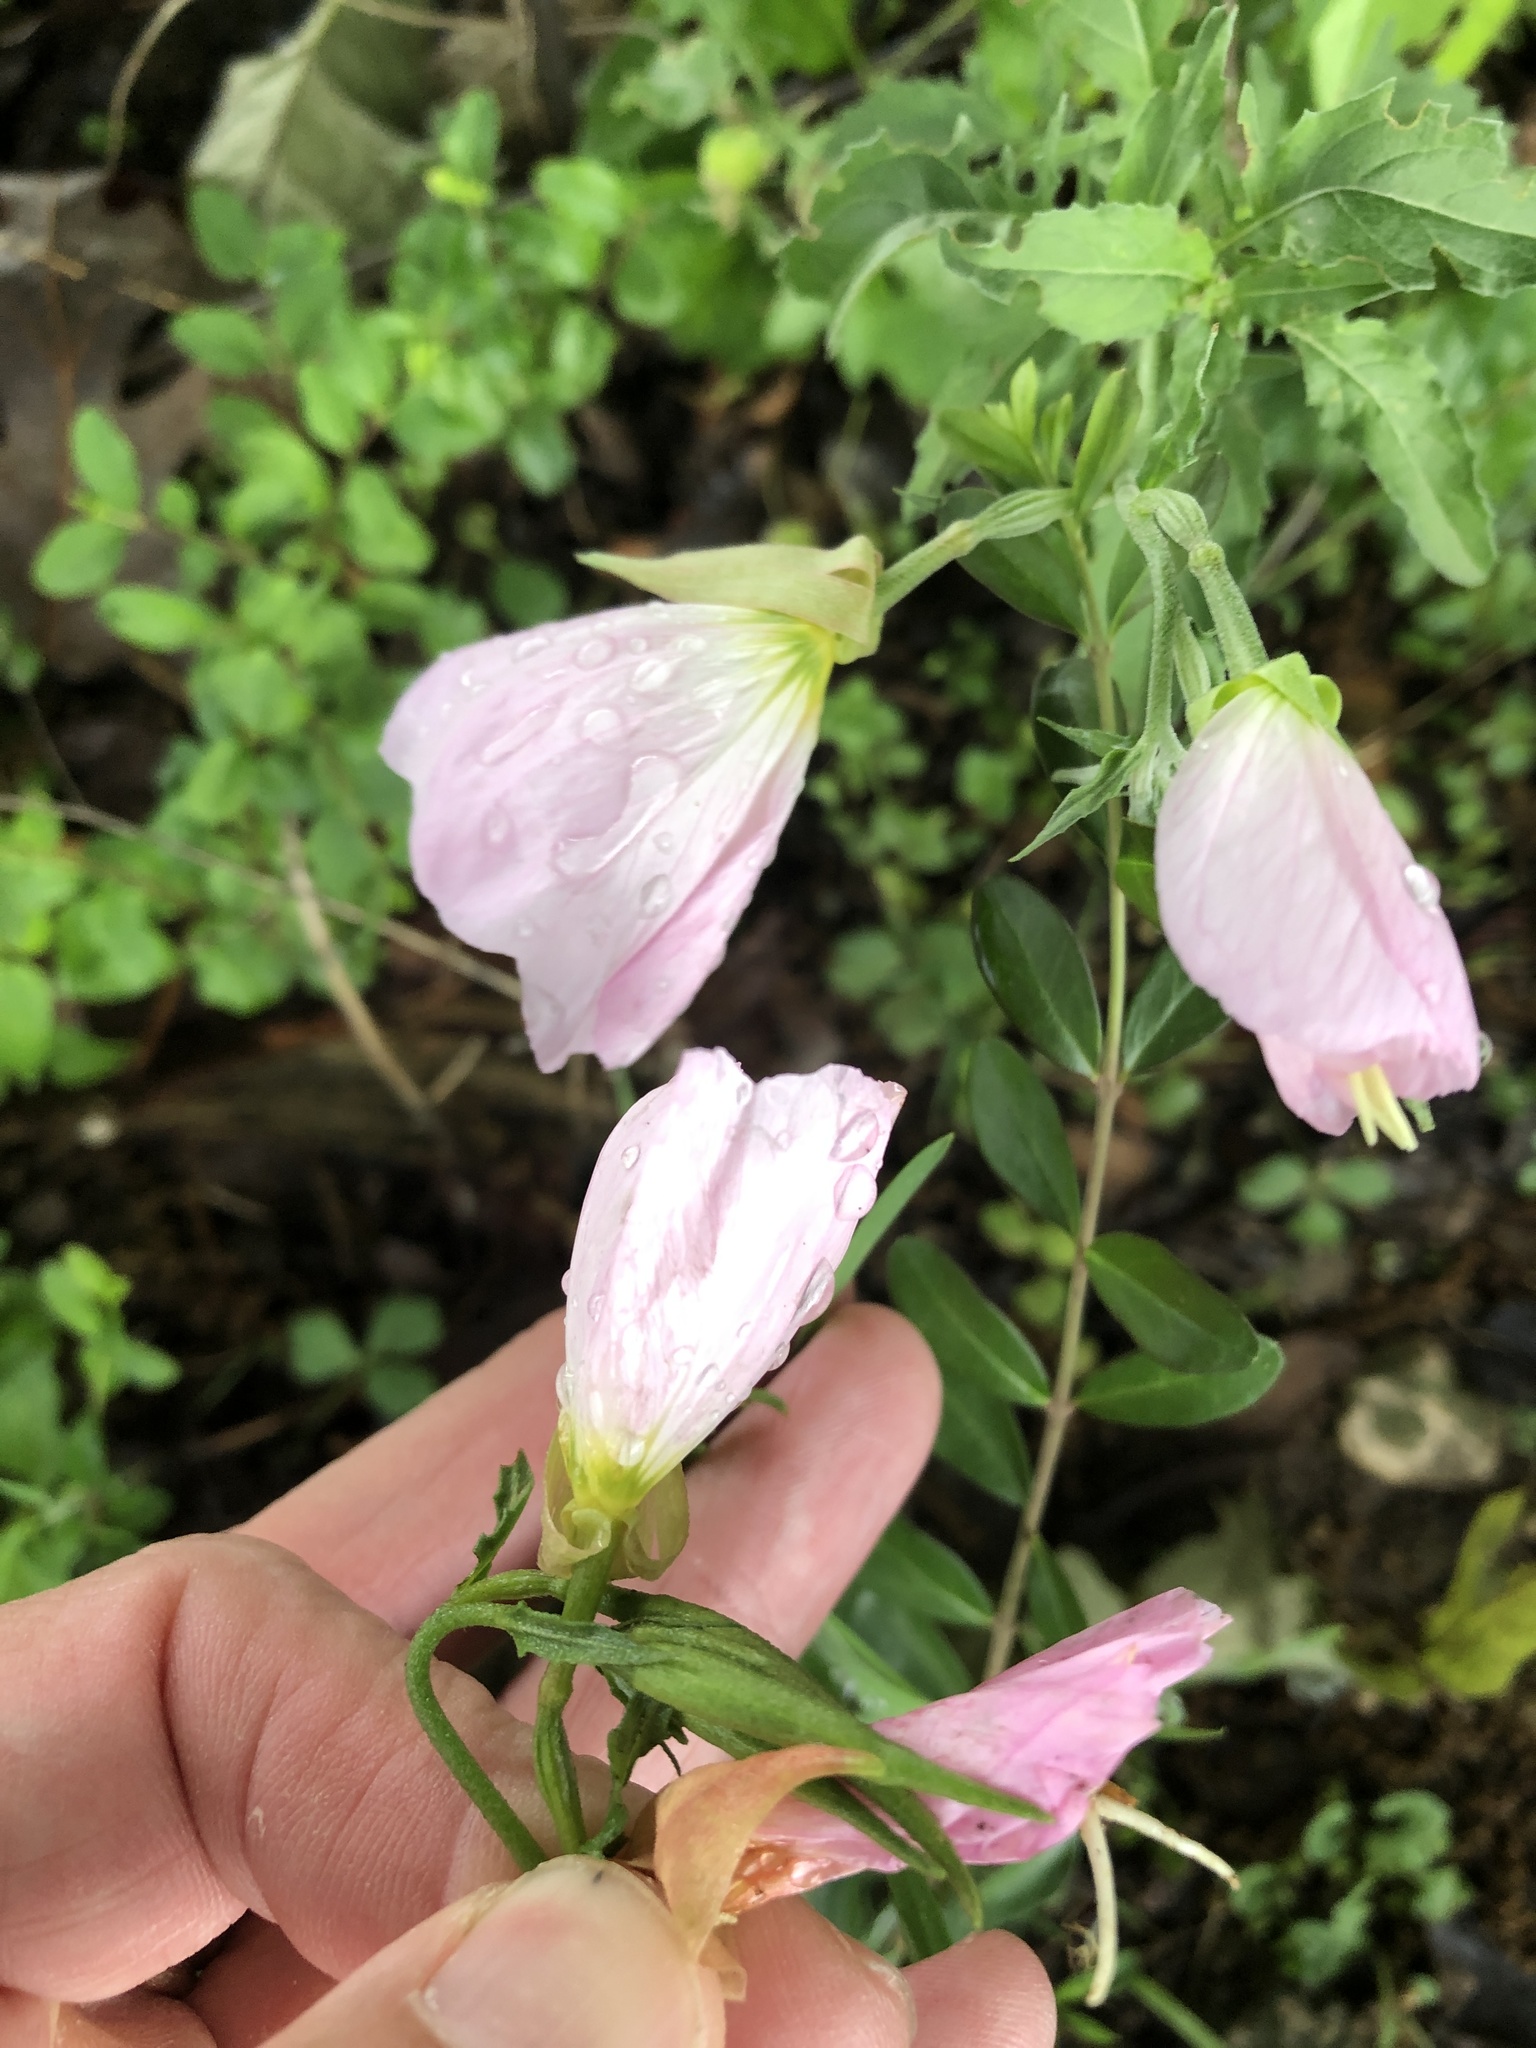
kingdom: Plantae
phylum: Tracheophyta
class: Magnoliopsida
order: Myrtales
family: Onagraceae
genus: Oenothera
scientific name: Oenothera speciosa
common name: White evening-primrose
